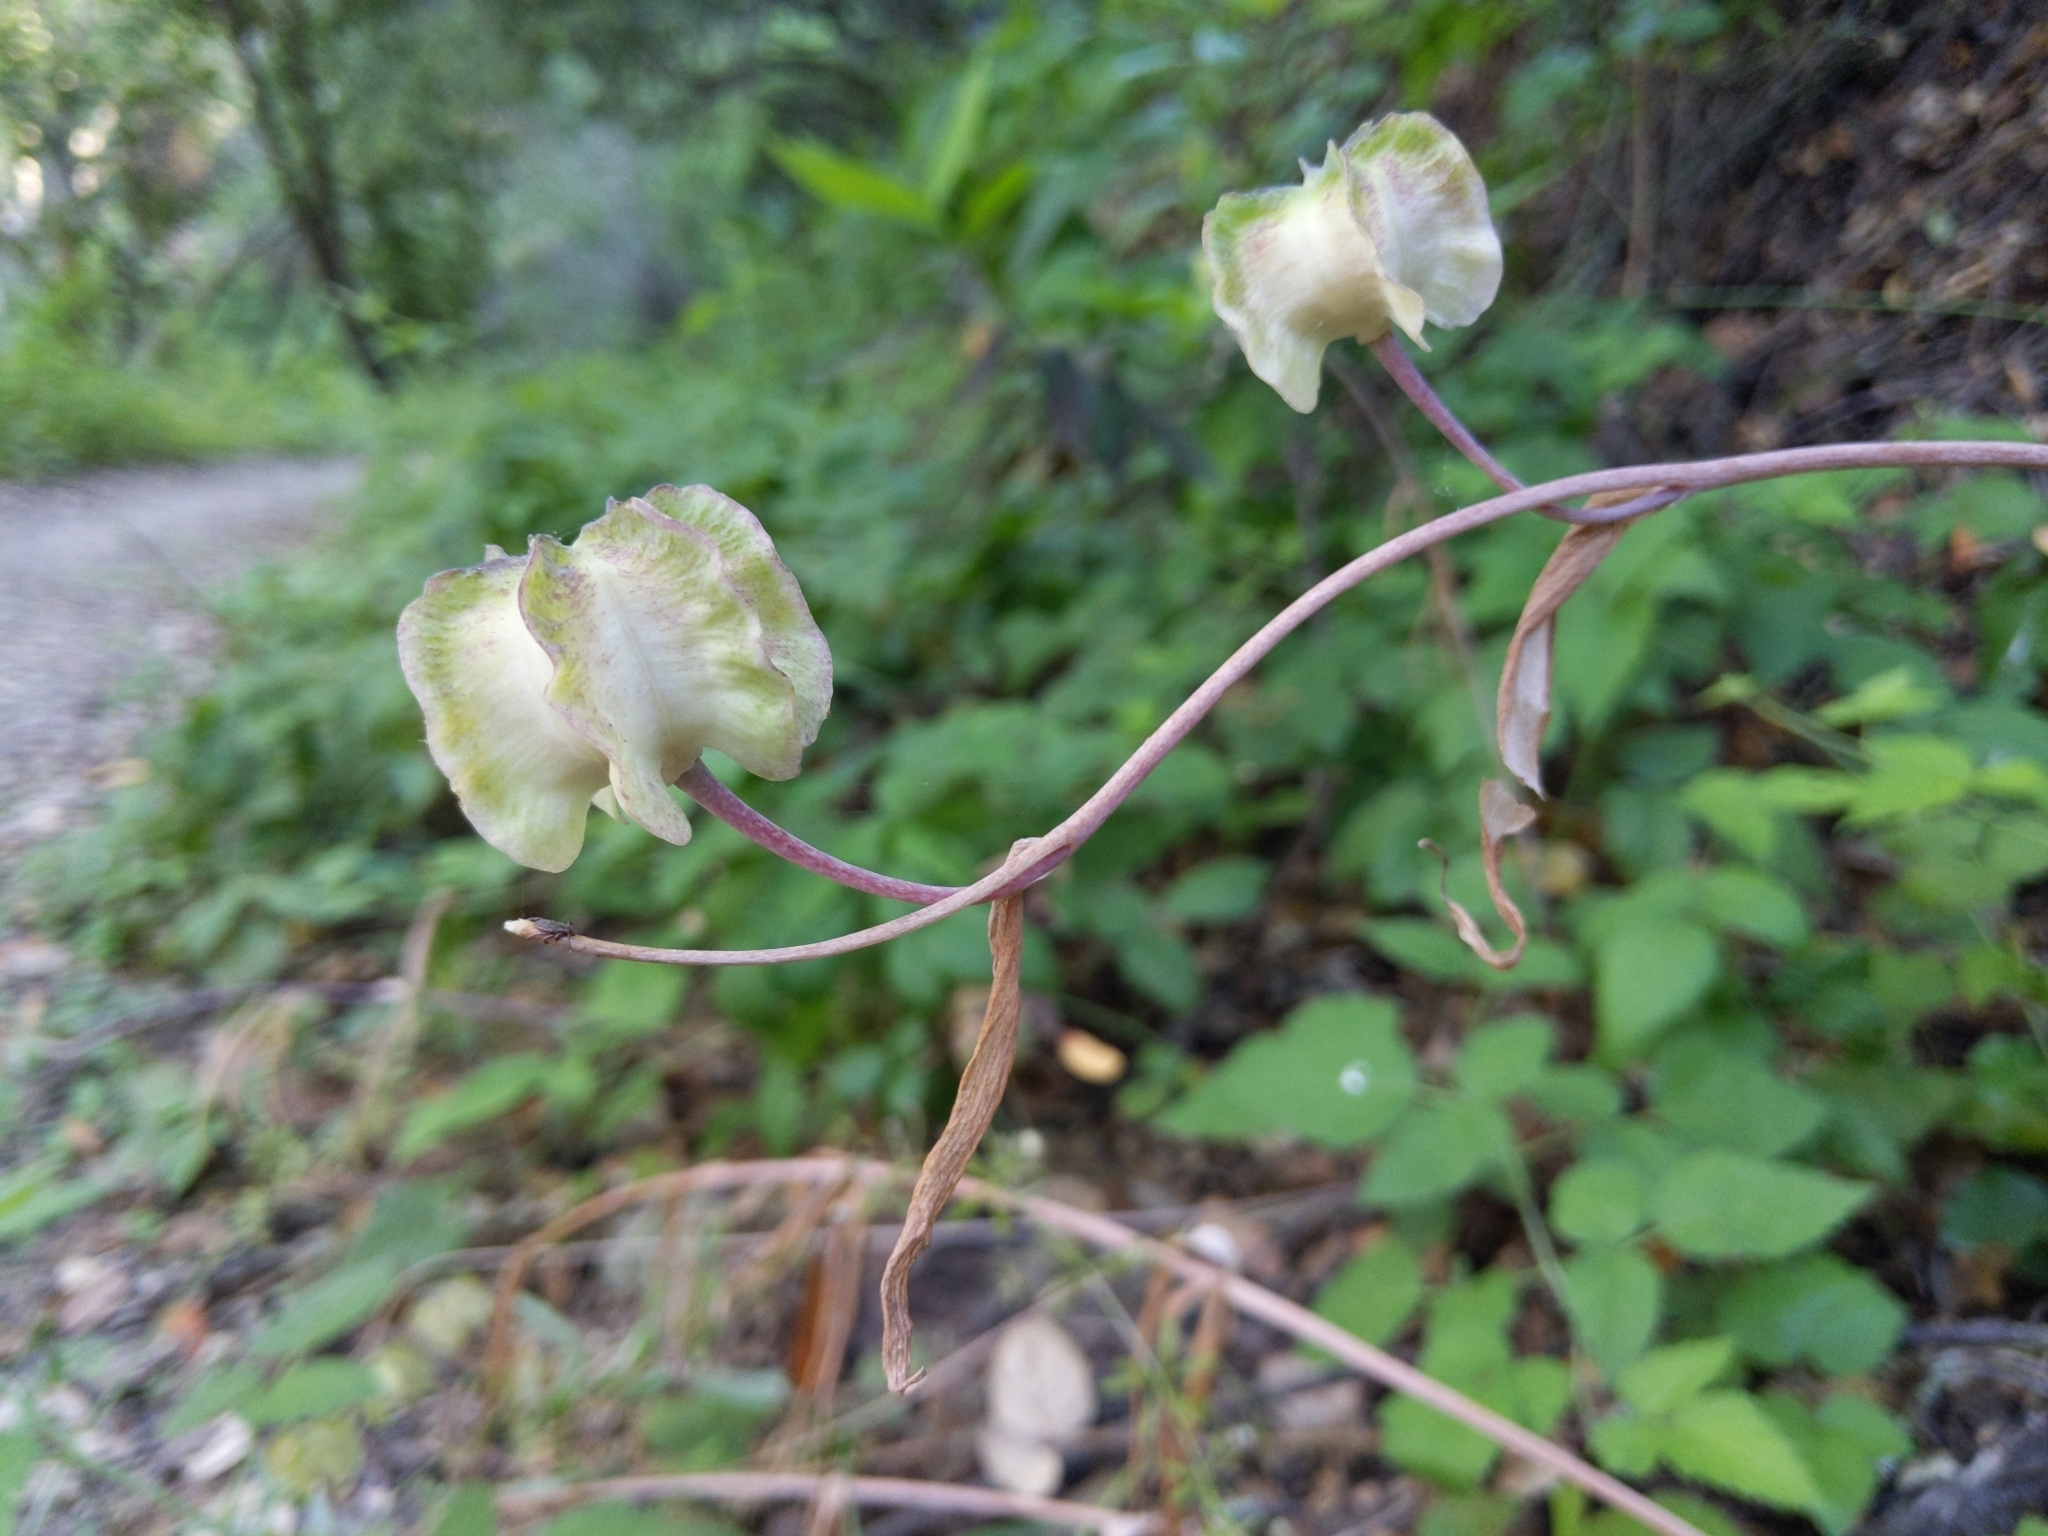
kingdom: Plantae
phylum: Tracheophyta
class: Liliopsida
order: Liliales
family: Liliaceae
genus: Fritillaria
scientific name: Fritillaria affinis
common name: Ojai fritillary
